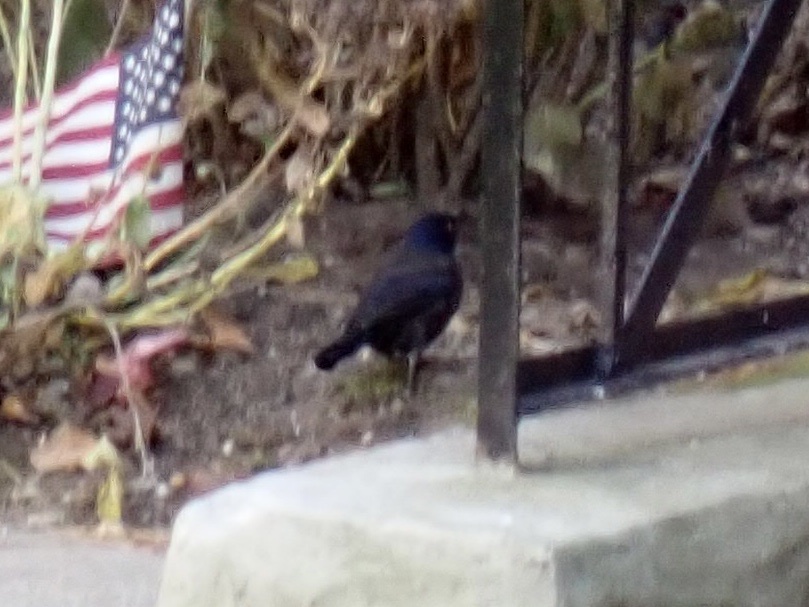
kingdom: Animalia
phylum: Chordata
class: Aves
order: Passeriformes
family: Icteridae
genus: Quiscalus
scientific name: Quiscalus quiscula
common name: Common grackle
